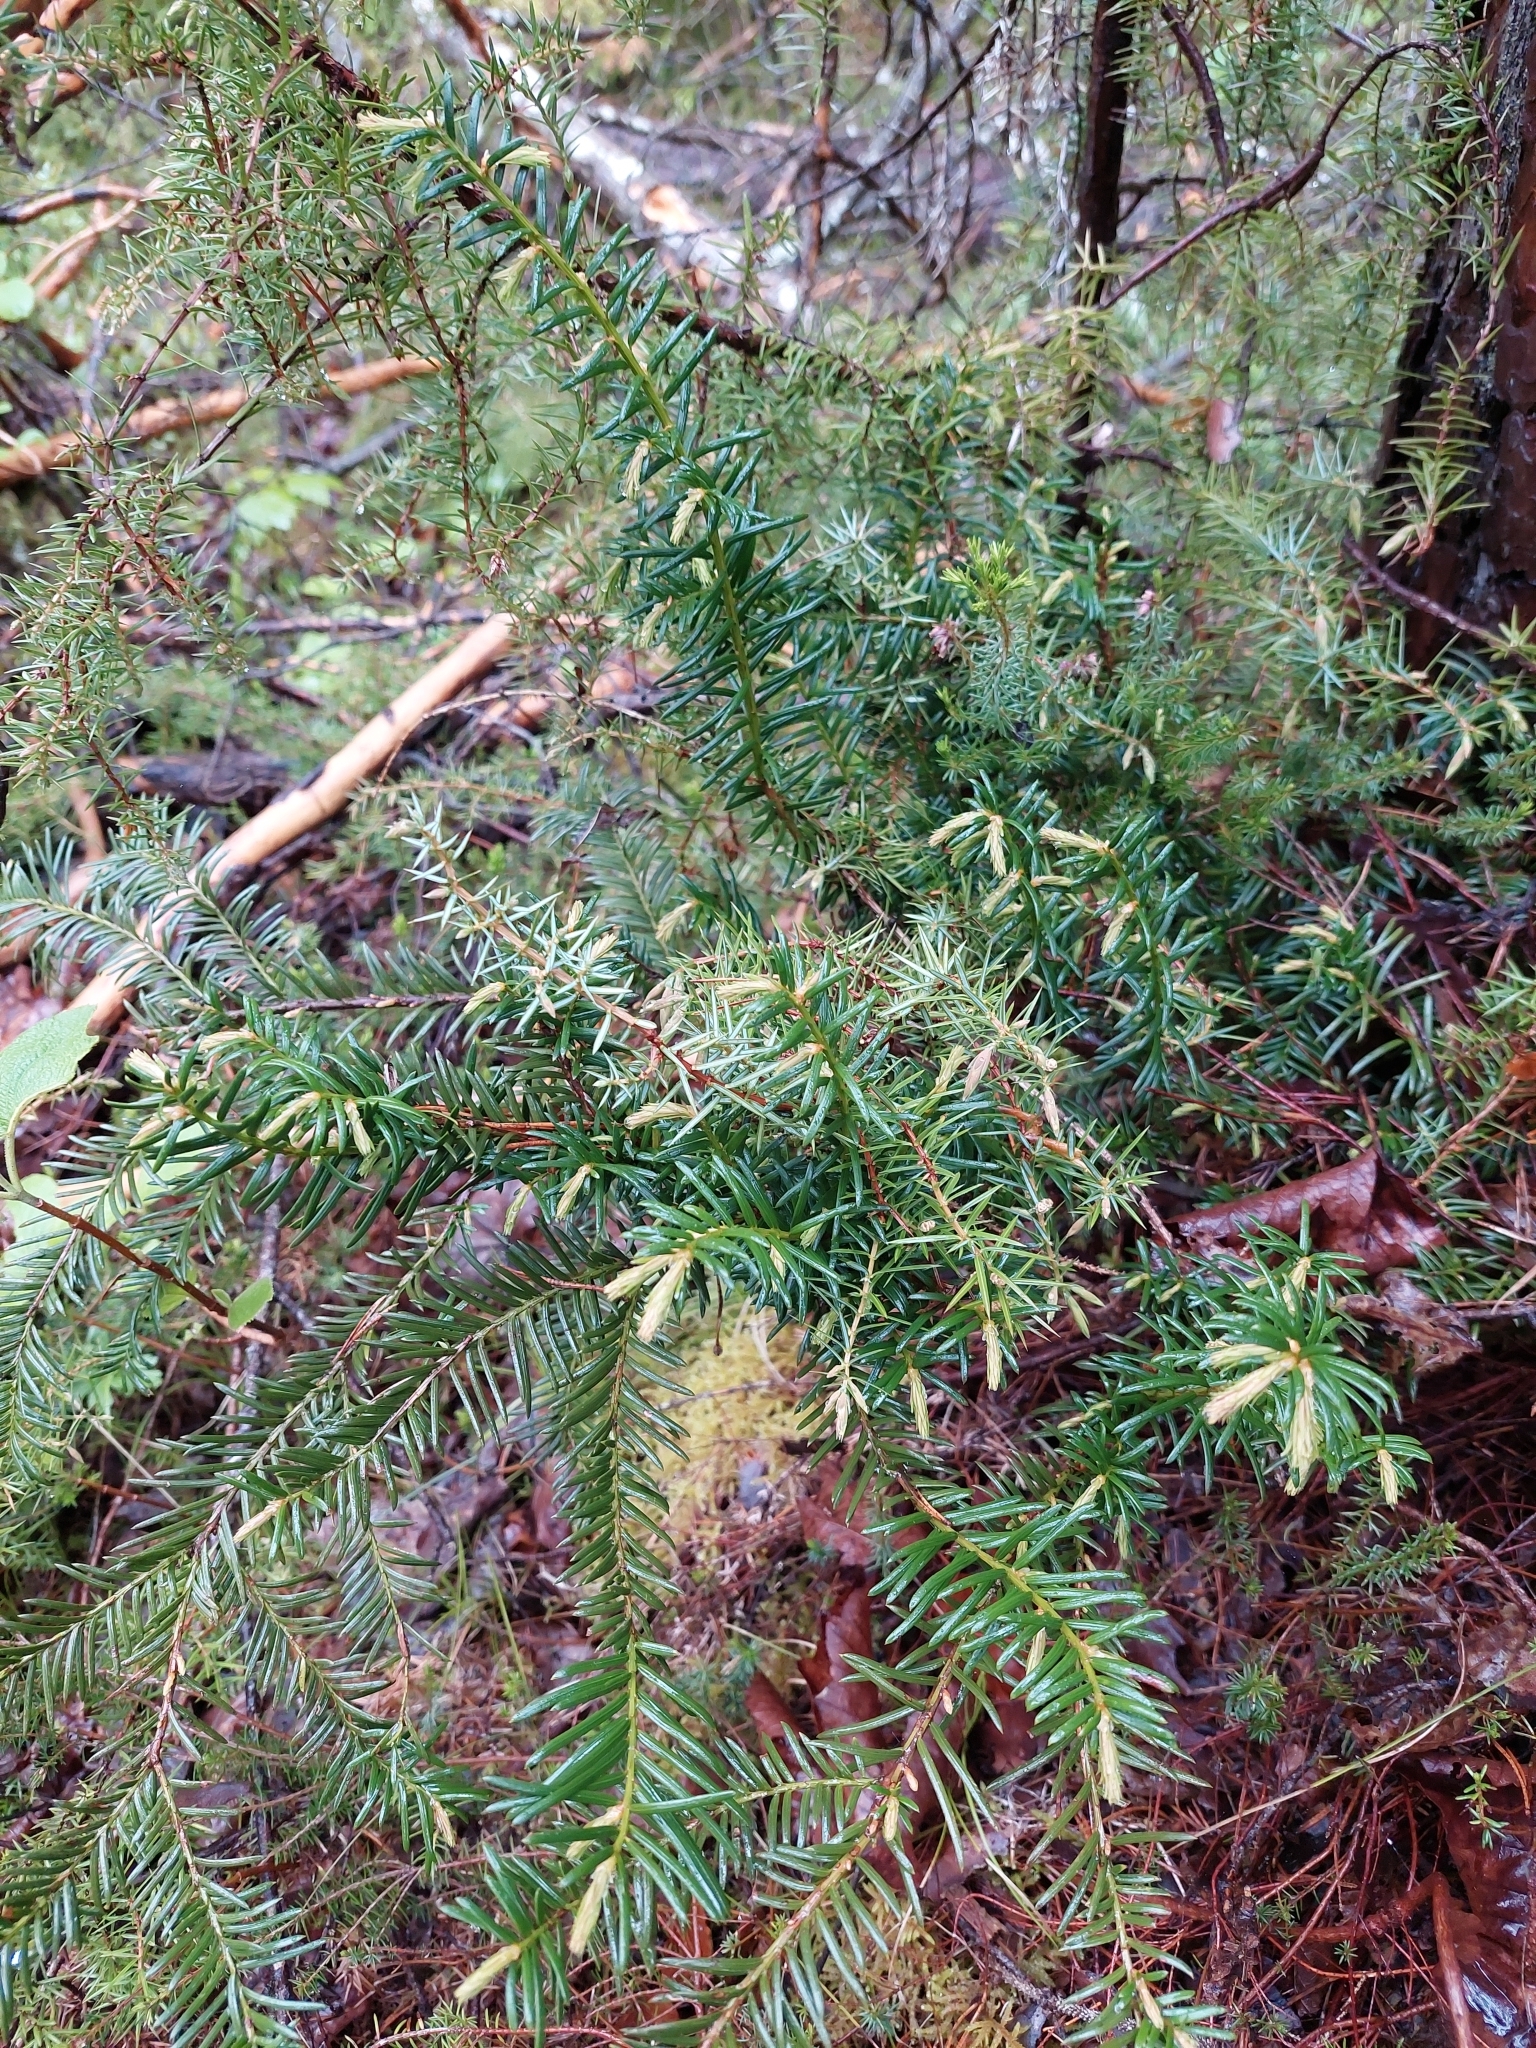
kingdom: Plantae
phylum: Tracheophyta
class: Pinopsida
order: Pinales
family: Taxaceae
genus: Taxus
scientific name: Taxus baccata
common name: Yew
